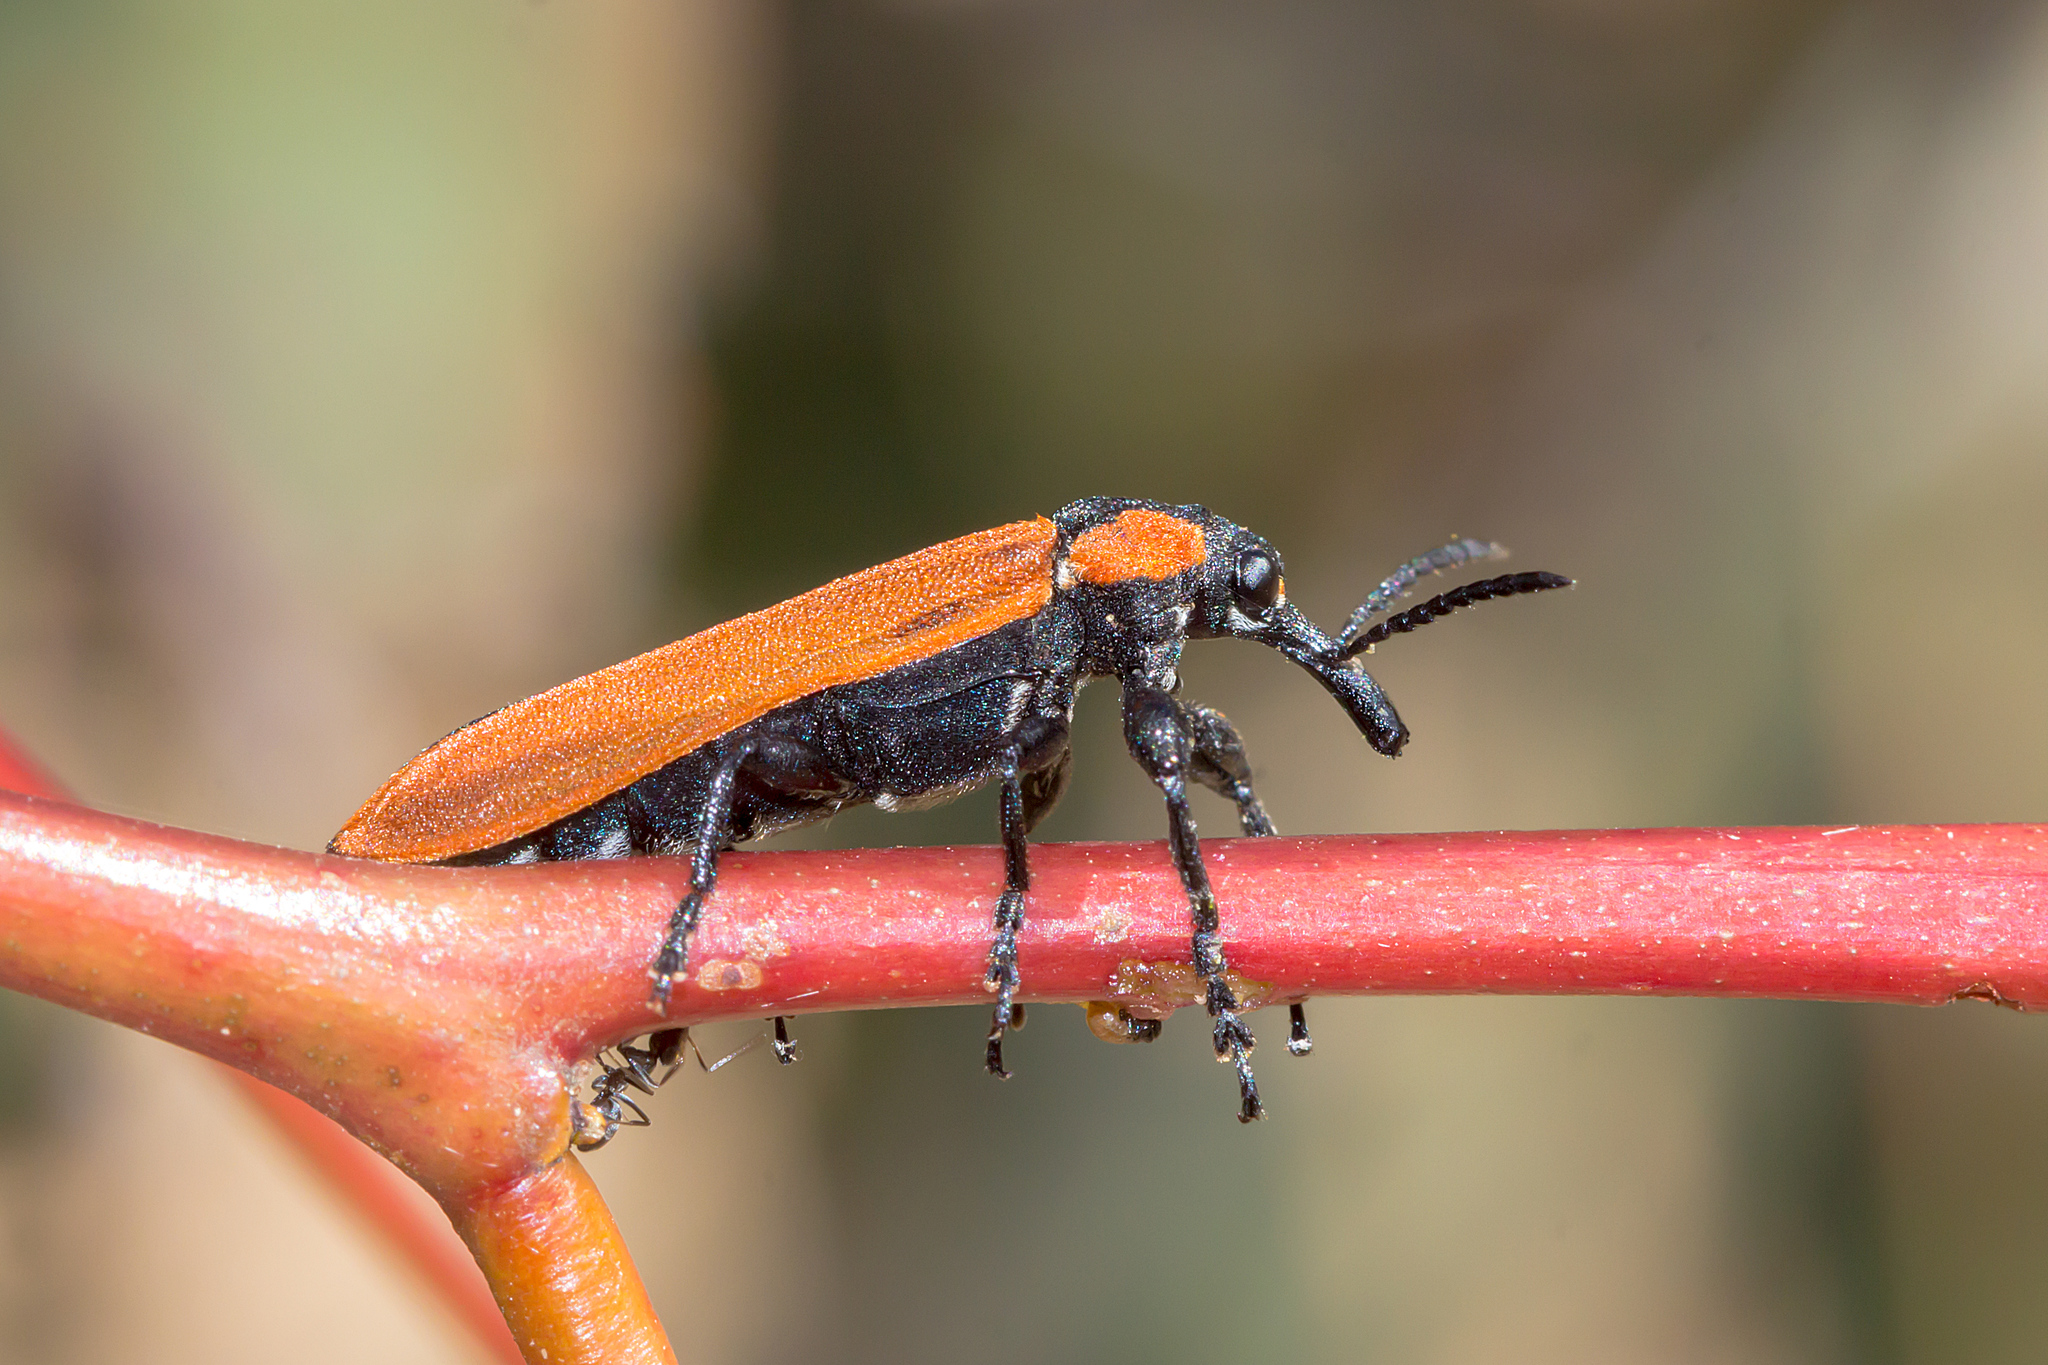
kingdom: Animalia
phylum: Arthropoda
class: Insecta
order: Coleoptera
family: Belidae
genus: Rhinotia
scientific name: Rhinotia haemoptera
